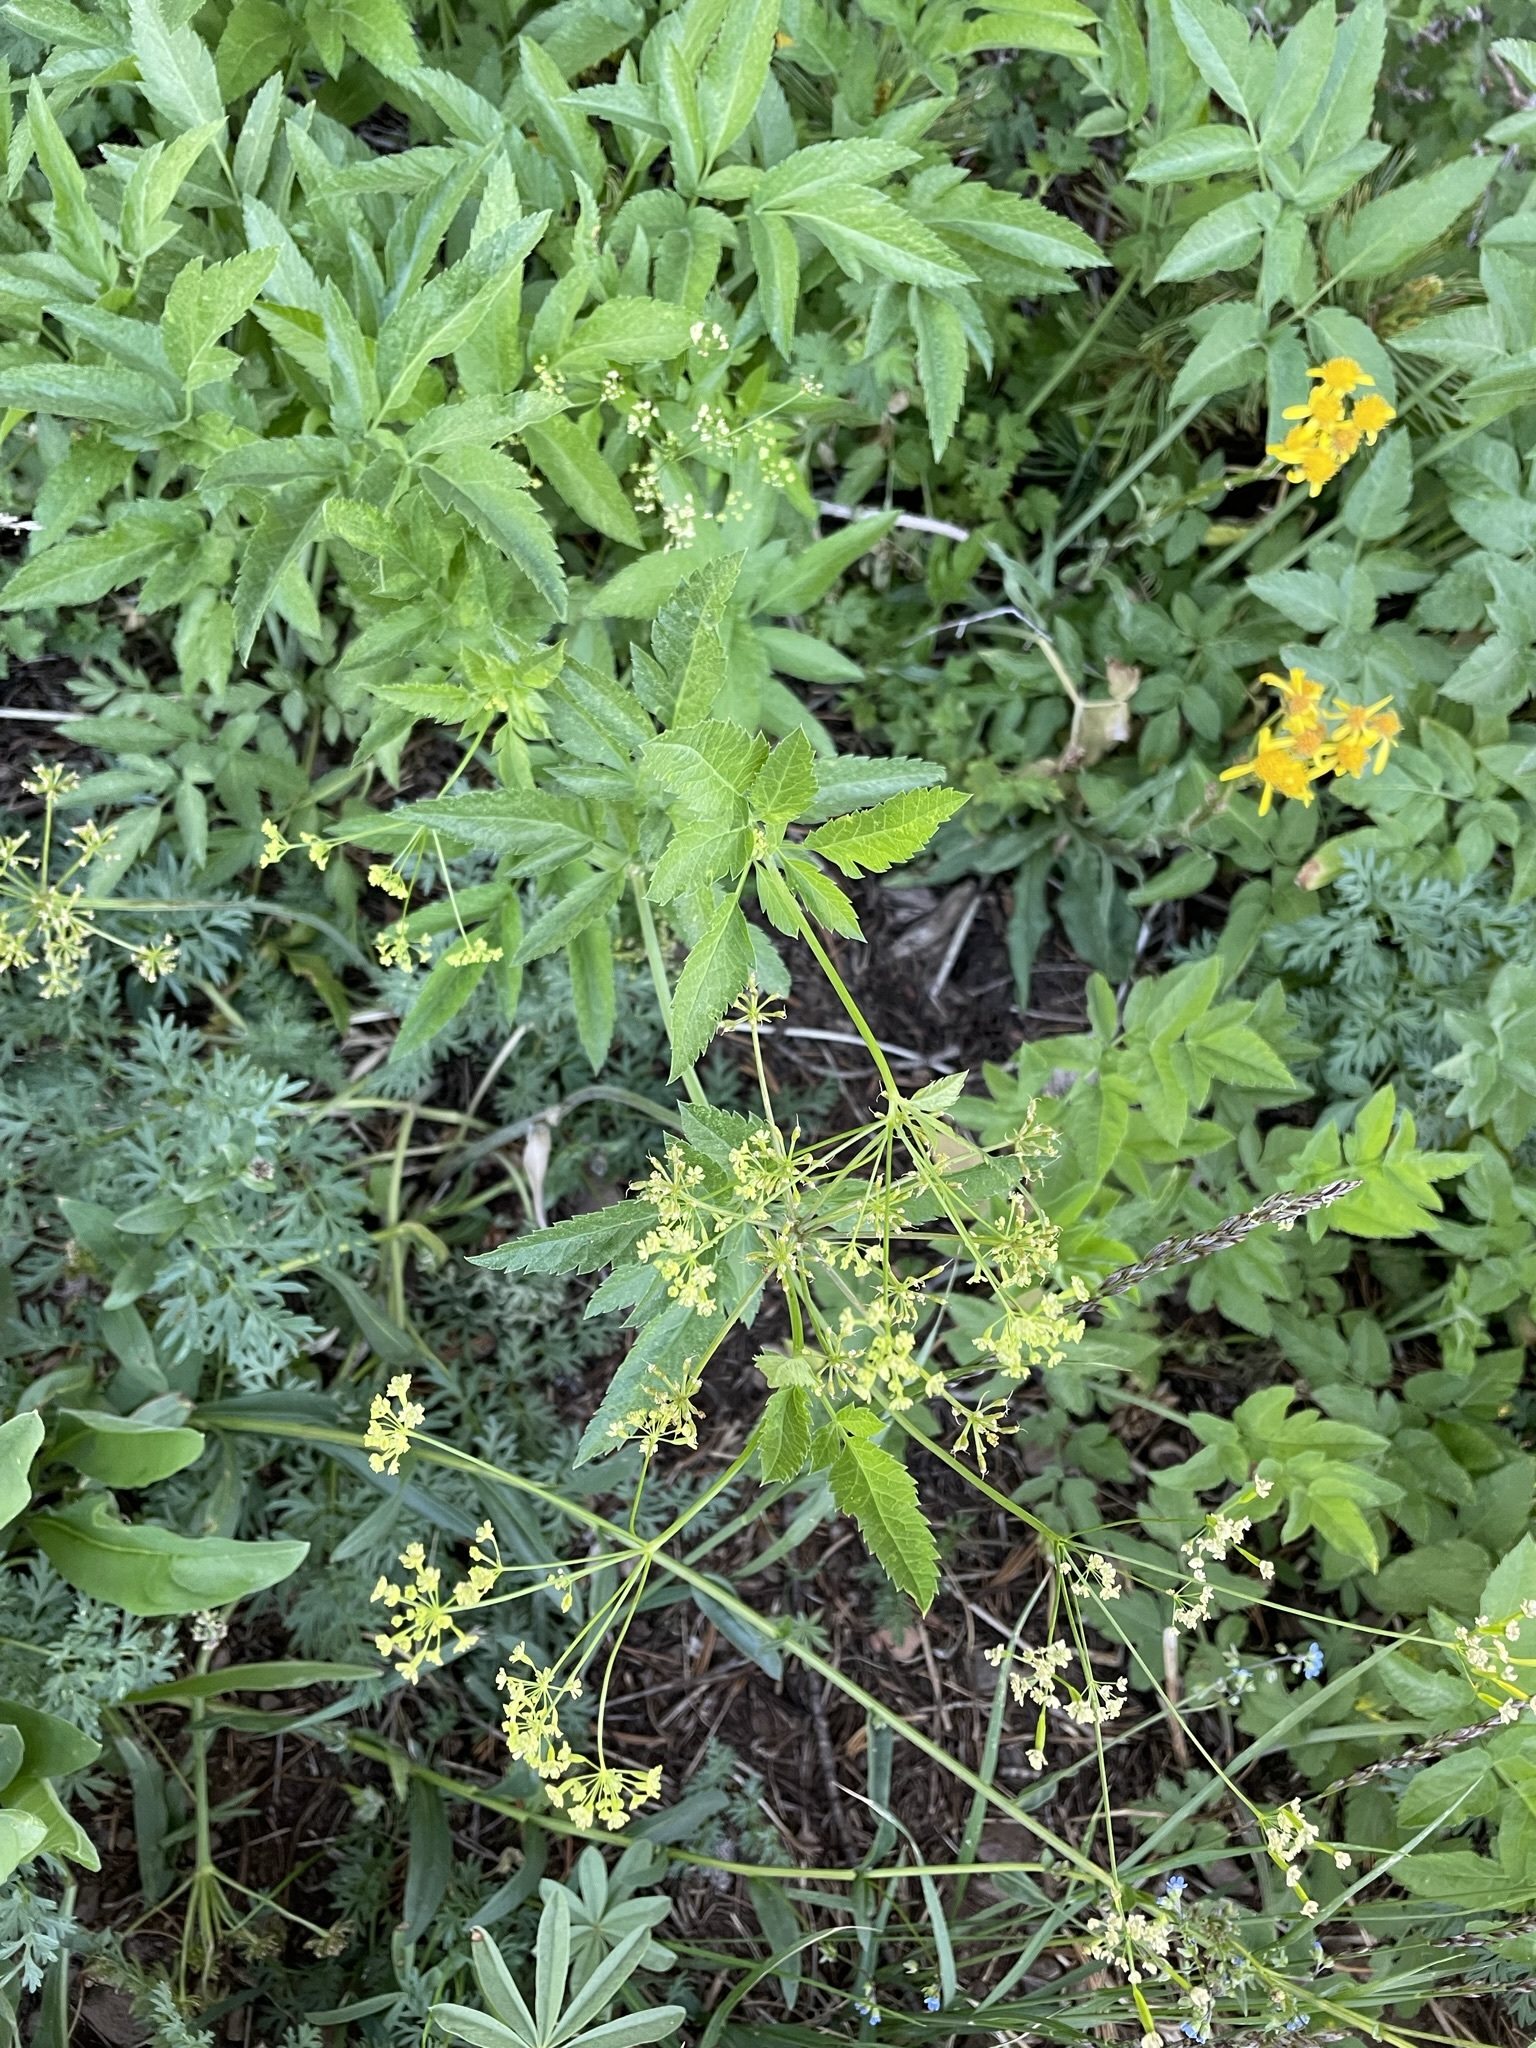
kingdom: Plantae
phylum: Tracheophyta
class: Magnoliopsida
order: Apiales
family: Apiaceae
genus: Osmorhiza
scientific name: Osmorhiza occidentalis
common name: Western sweet cicely
